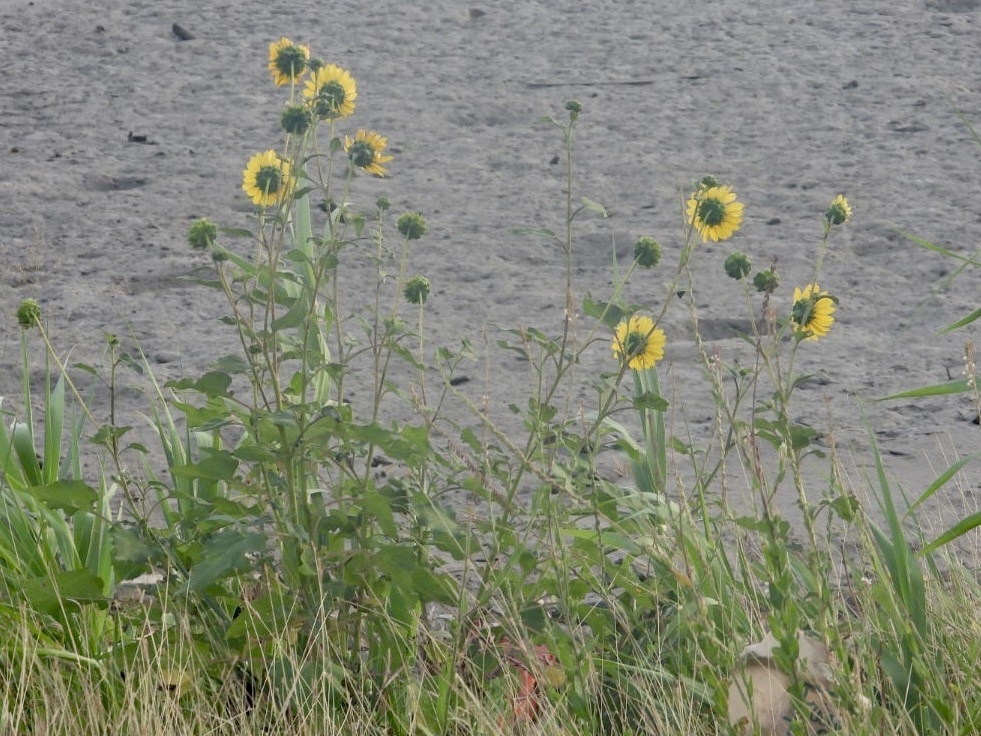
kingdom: Plantae
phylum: Tracheophyta
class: Magnoliopsida
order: Asterales
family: Asteraceae
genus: Helianthus
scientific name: Helianthus annuus
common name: Sunflower
